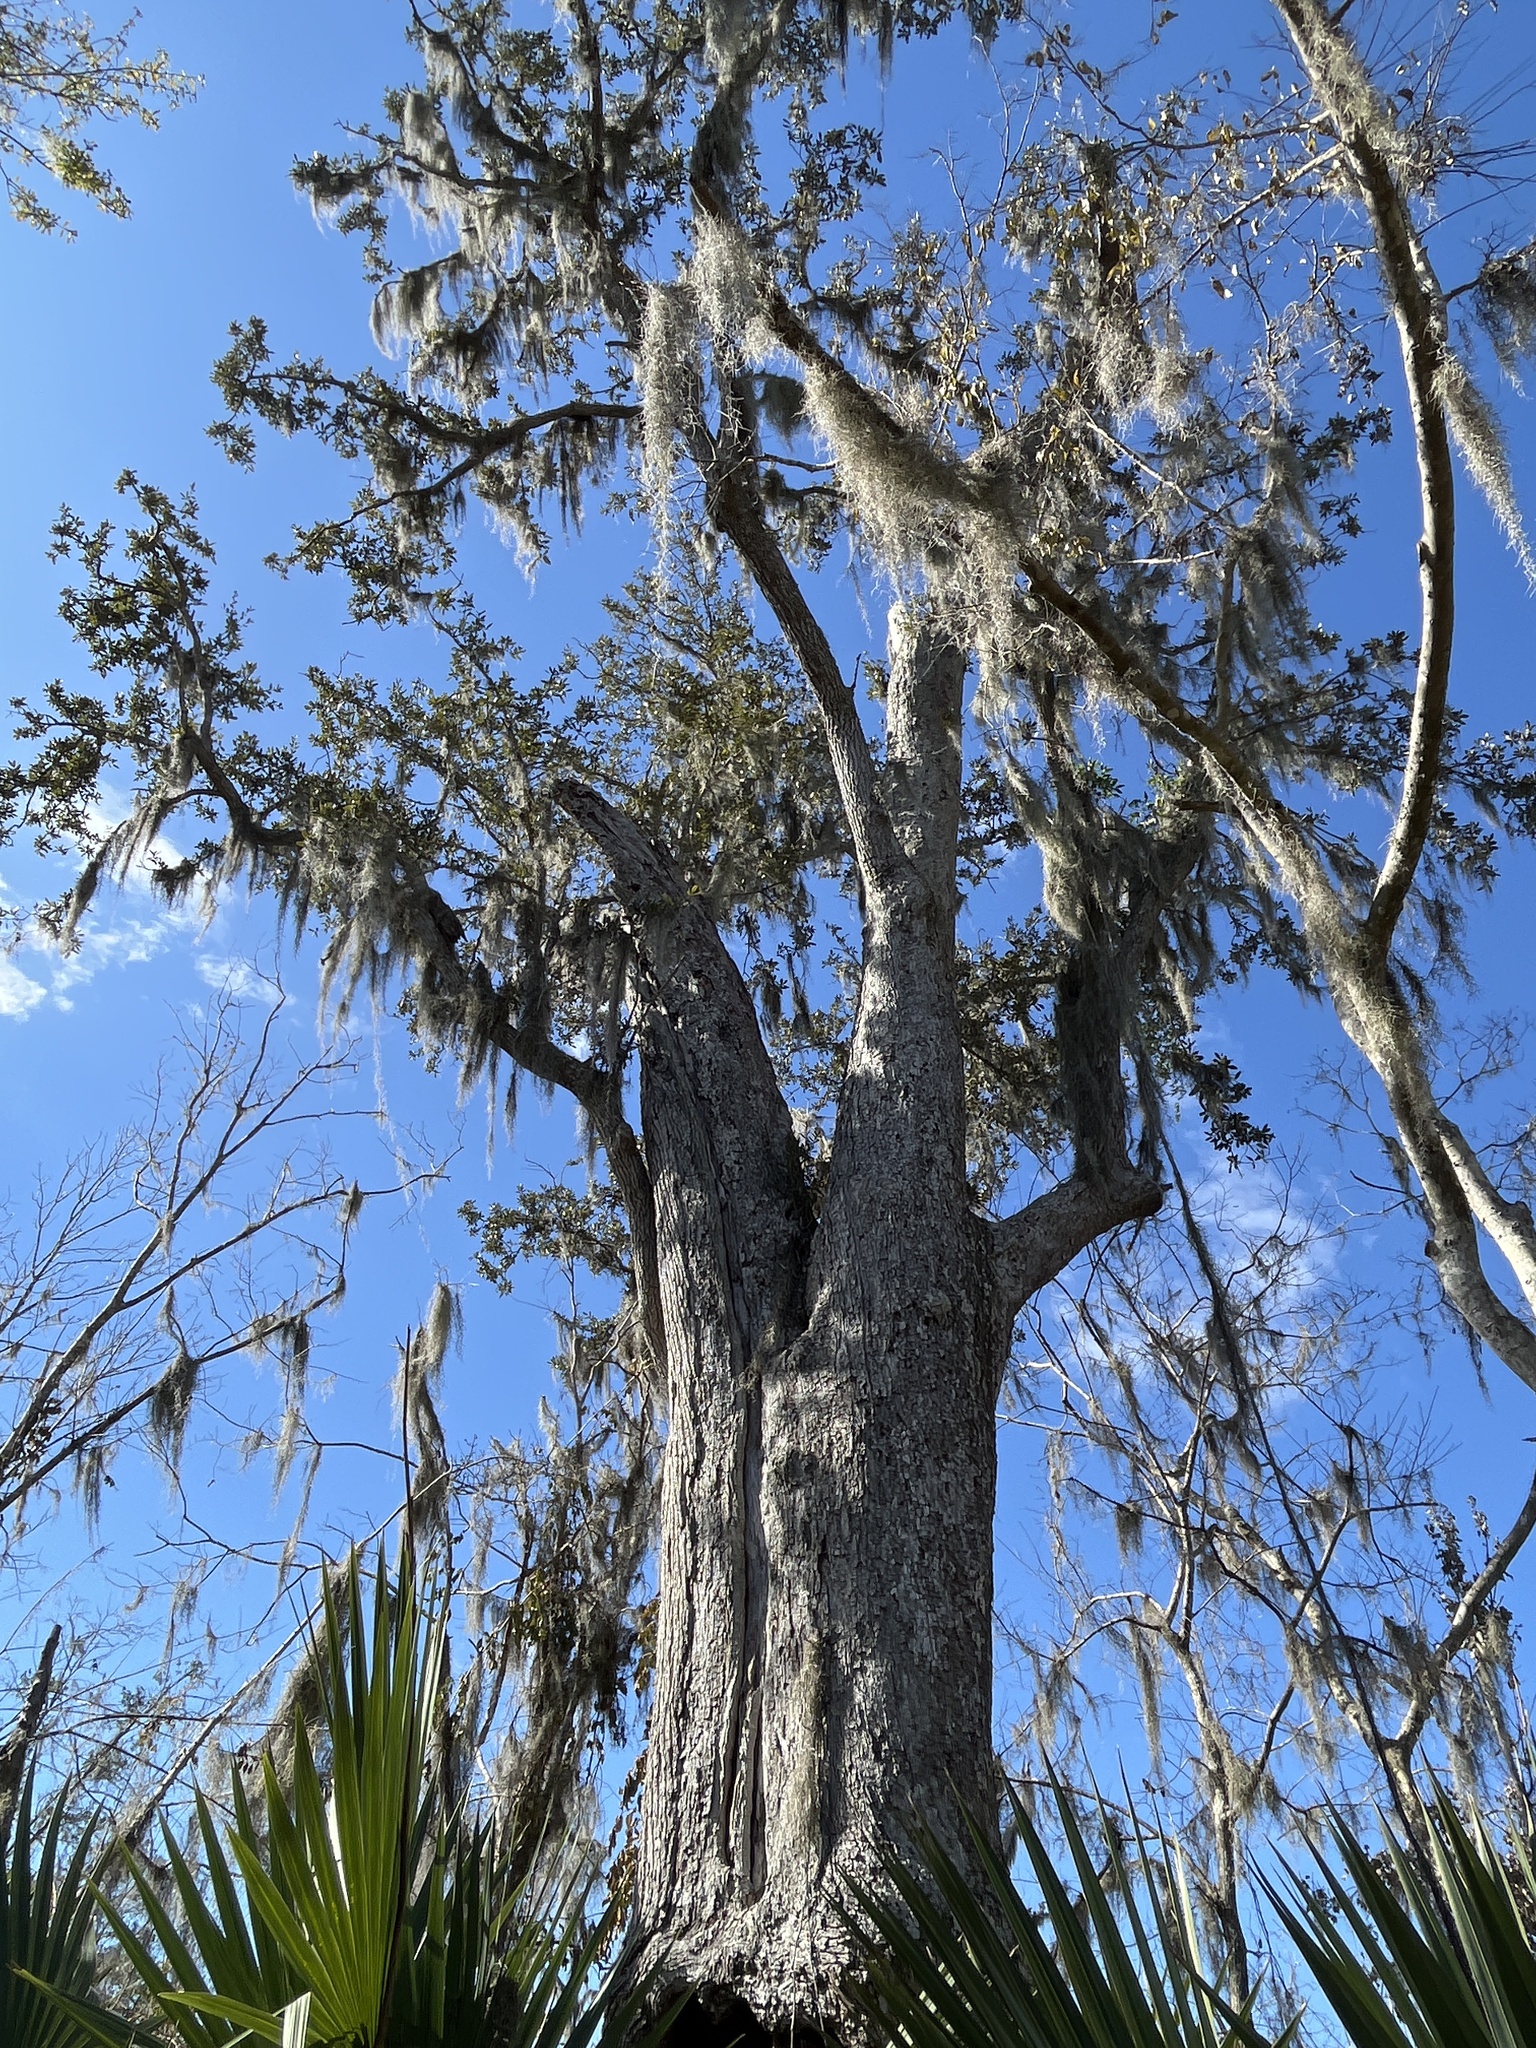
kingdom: Plantae
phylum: Tracheophyta
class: Magnoliopsida
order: Fagales
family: Fagaceae
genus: Quercus
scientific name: Quercus virginiana
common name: Southern live oak
